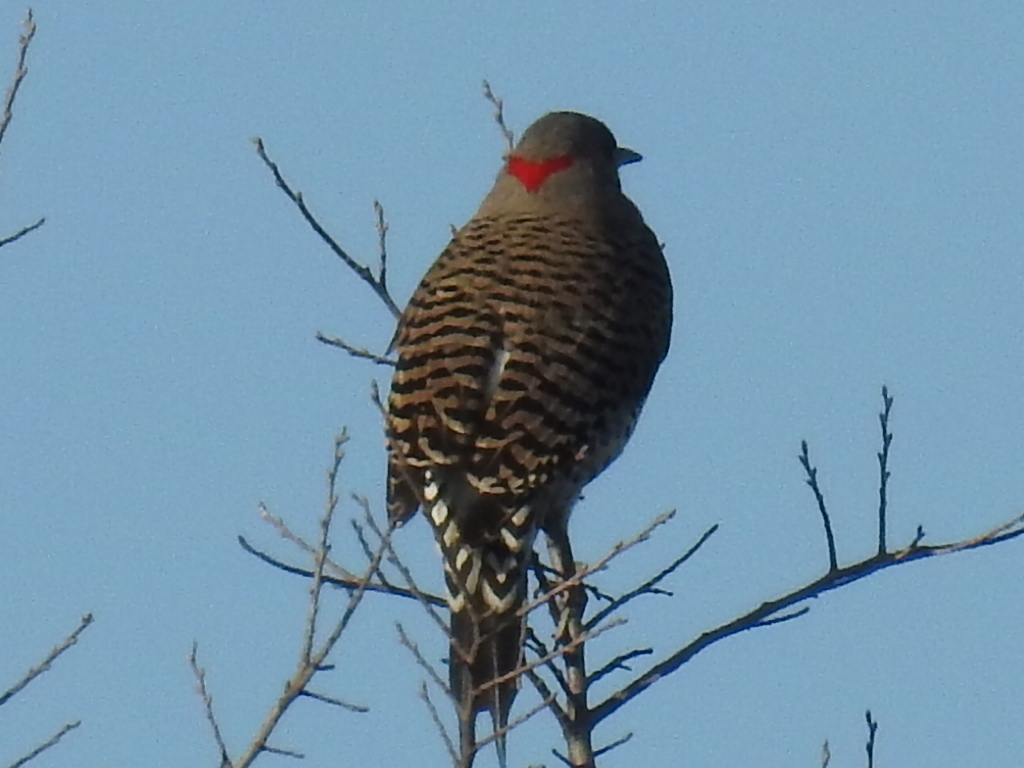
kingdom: Animalia
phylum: Chordata
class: Aves
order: Piciformes
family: Picidae
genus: Colaptes
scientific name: Colaptes auratus
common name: Northern flicker
